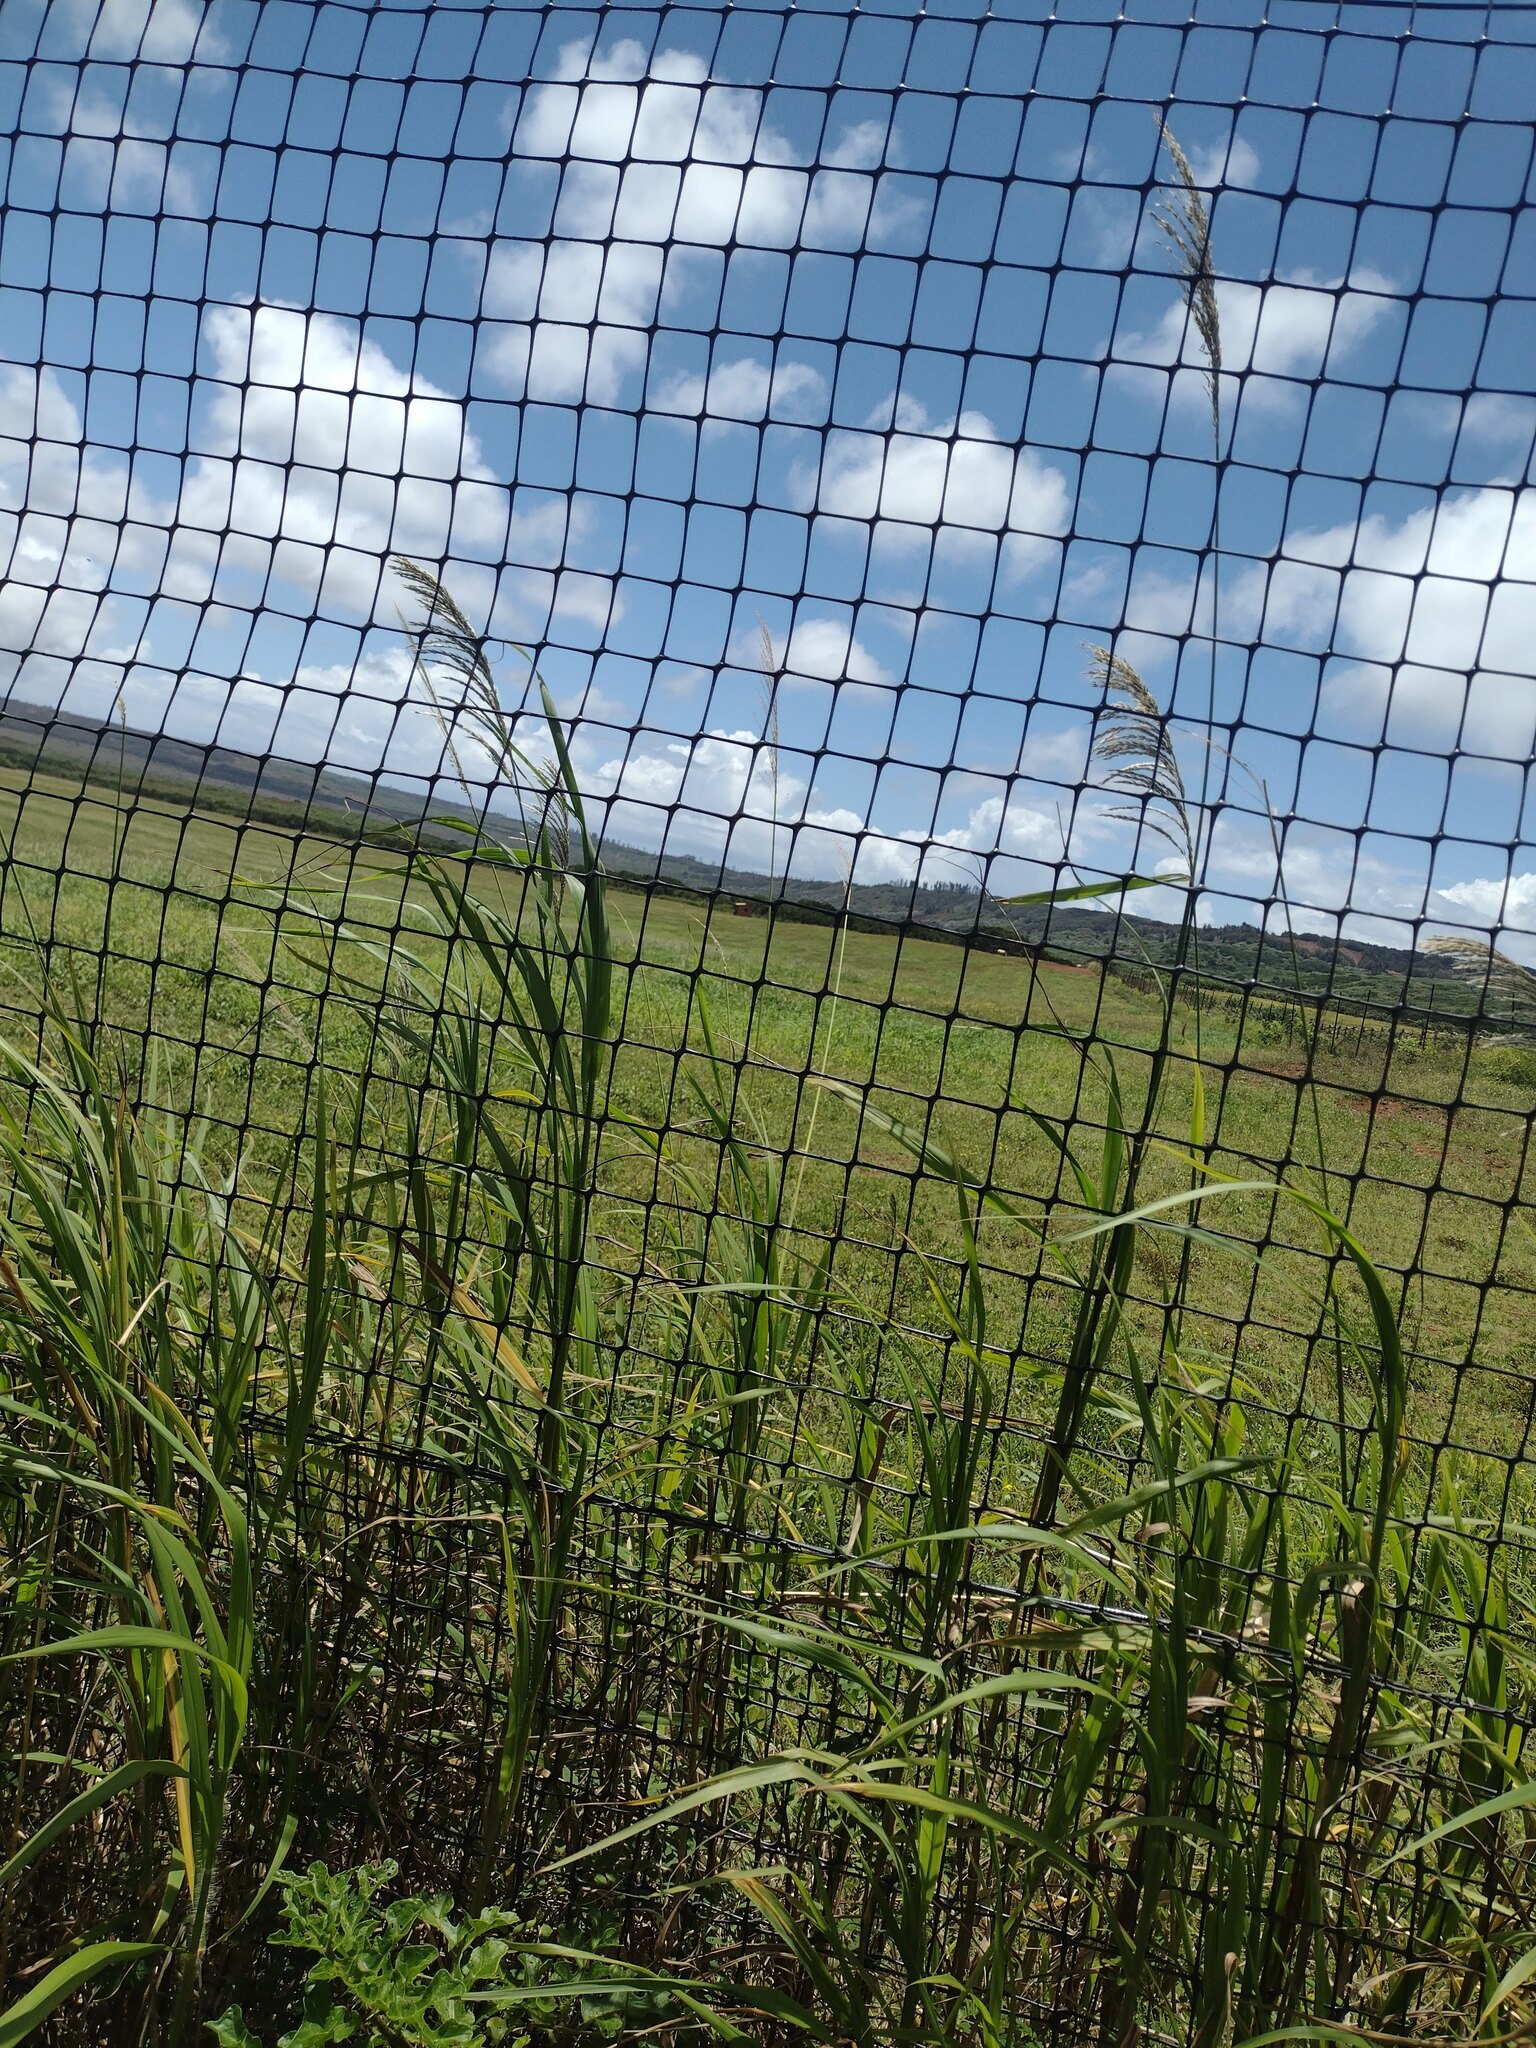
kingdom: Plantae
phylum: Tracheophyta
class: Liliopsida
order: Poales
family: Poaceae
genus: Digitaria
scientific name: Digitaria insularis
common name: Sourgrass
